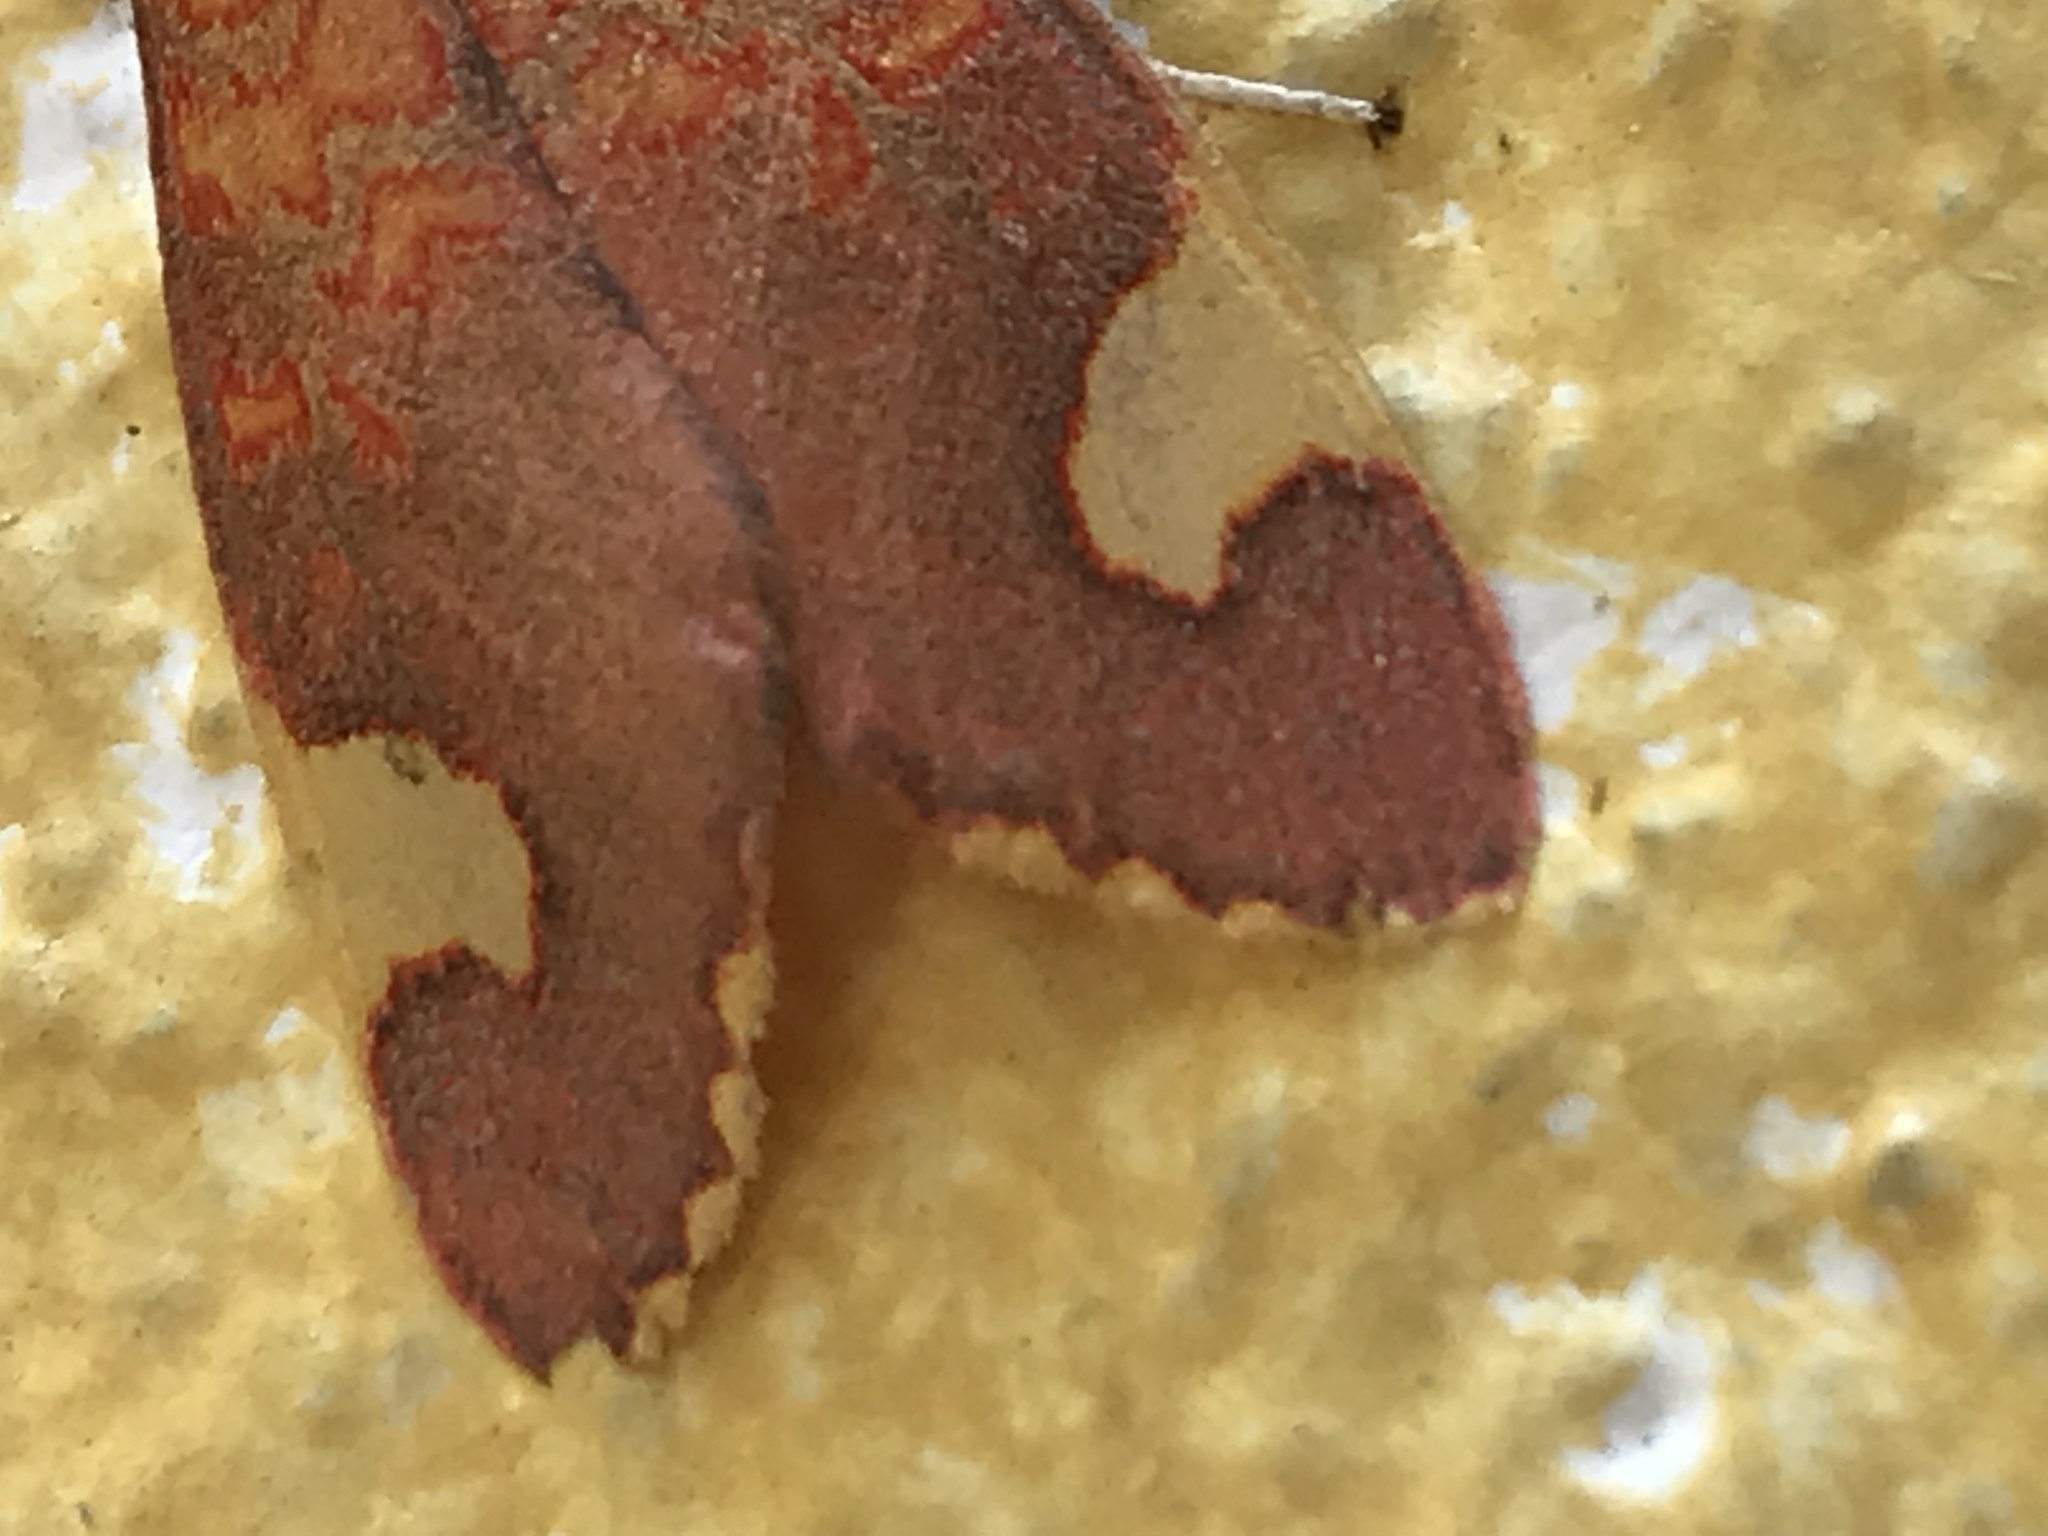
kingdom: Animalia
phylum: Arthropoda
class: Insecta
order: Lepidoptera
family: Erebidae
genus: Melese
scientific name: Melese amastris
